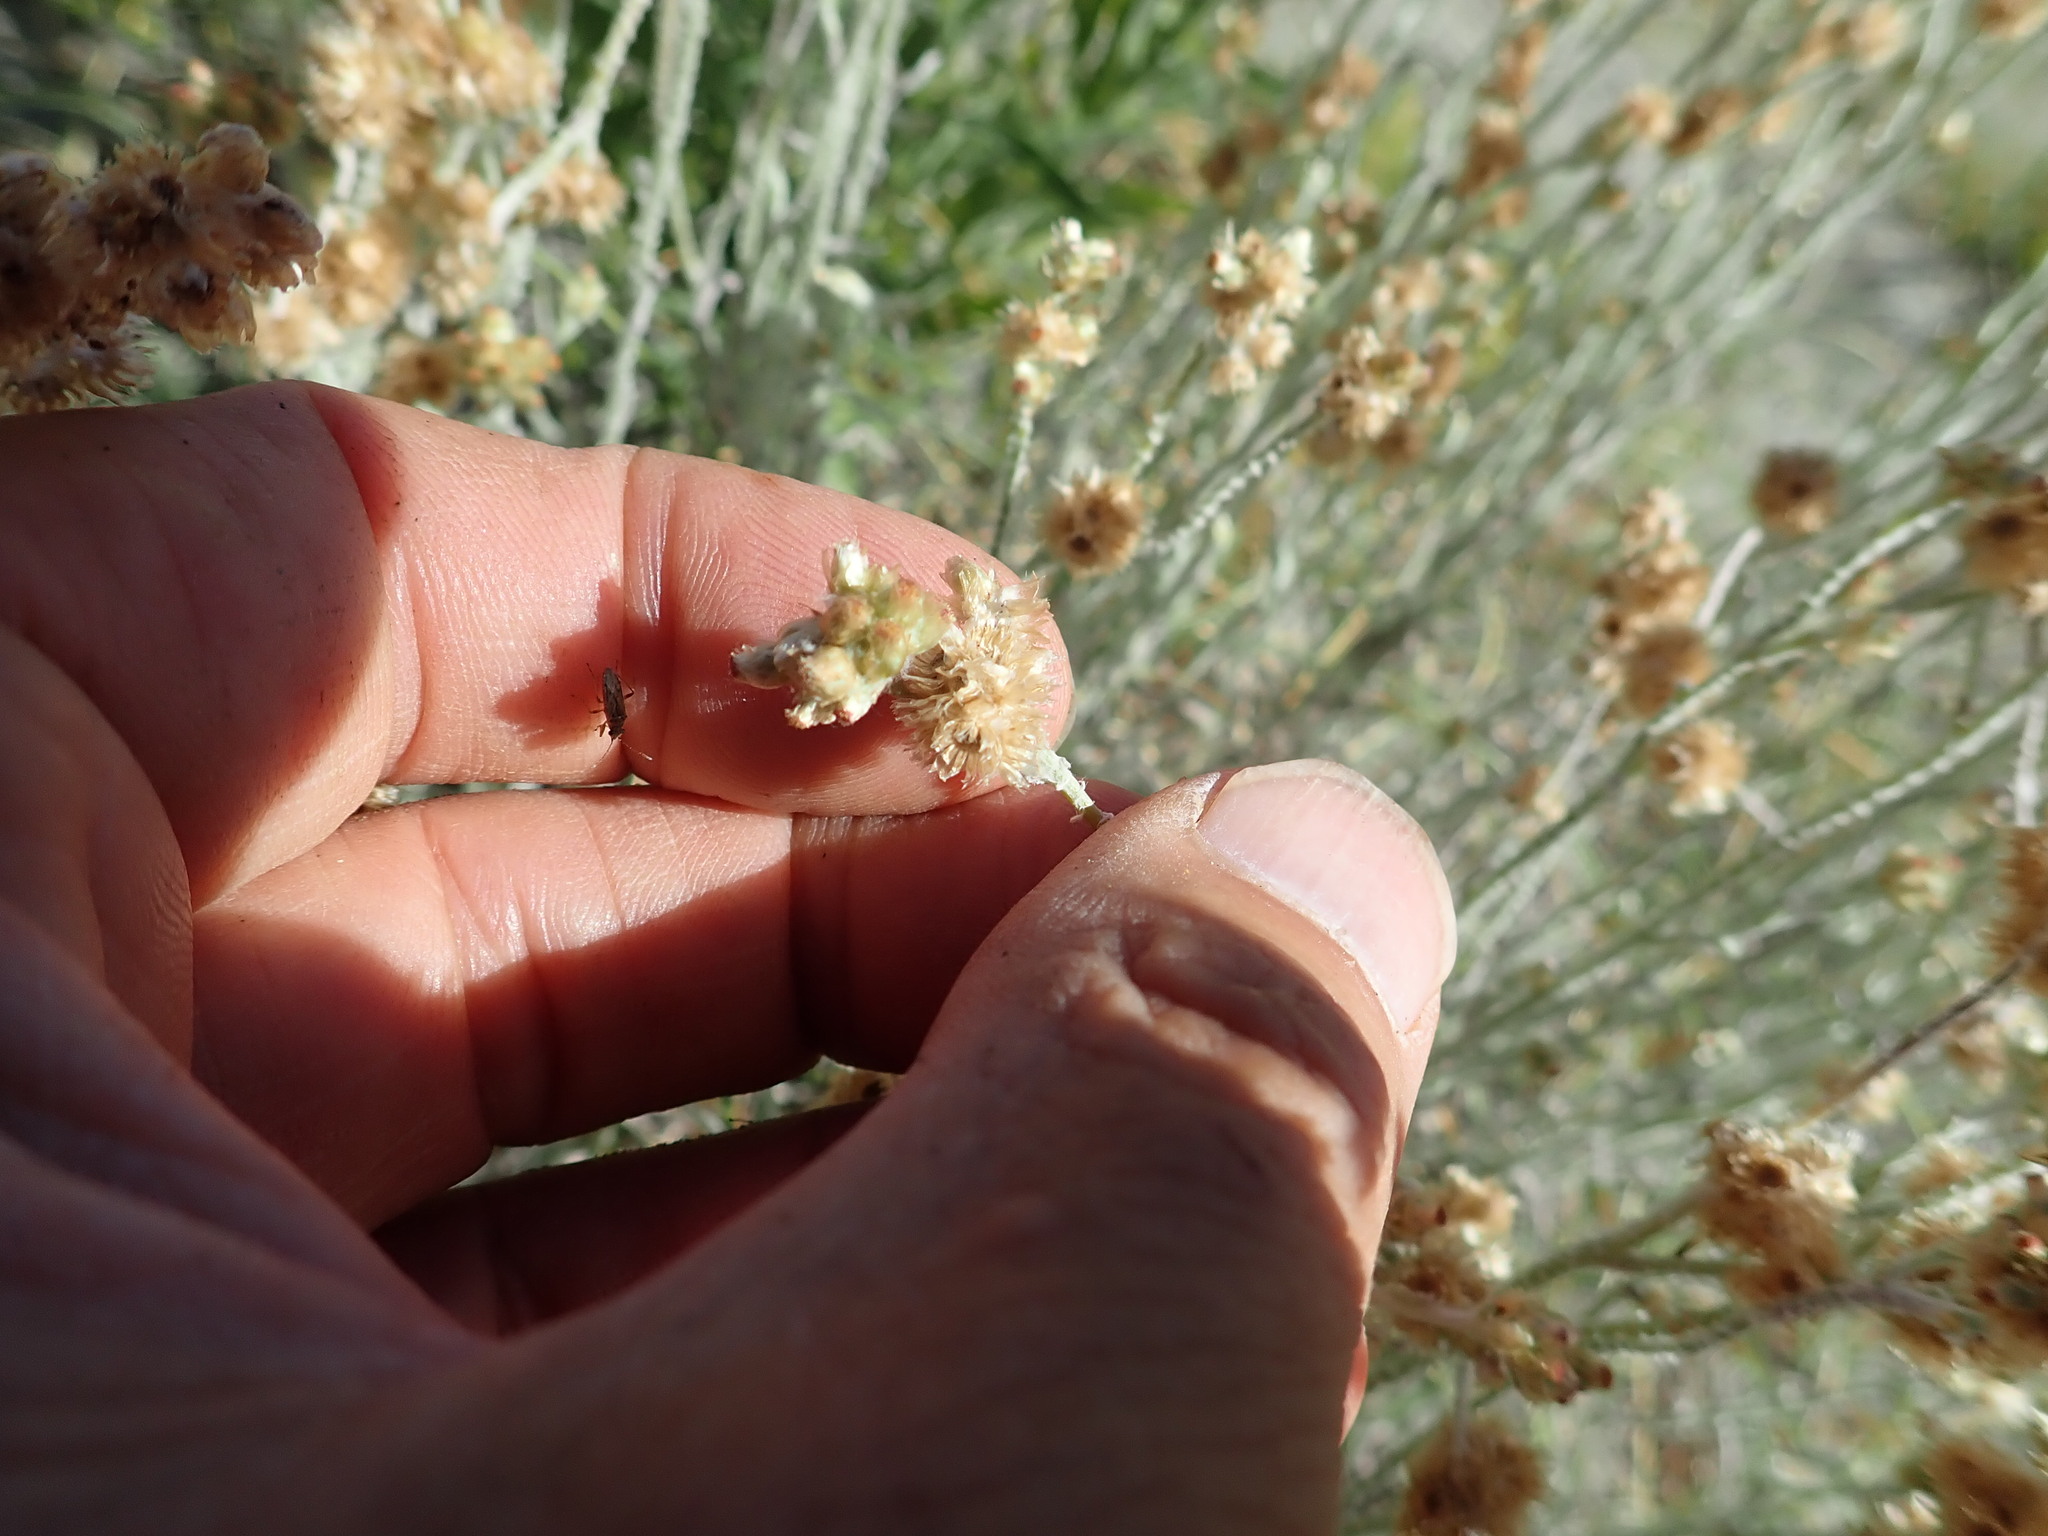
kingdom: Plantae
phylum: Tracheophyta
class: Magnoliopsida
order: Asterales
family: Asteraceae
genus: Helichrysum
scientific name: Helichrysum luteoalbum
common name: Daisy
